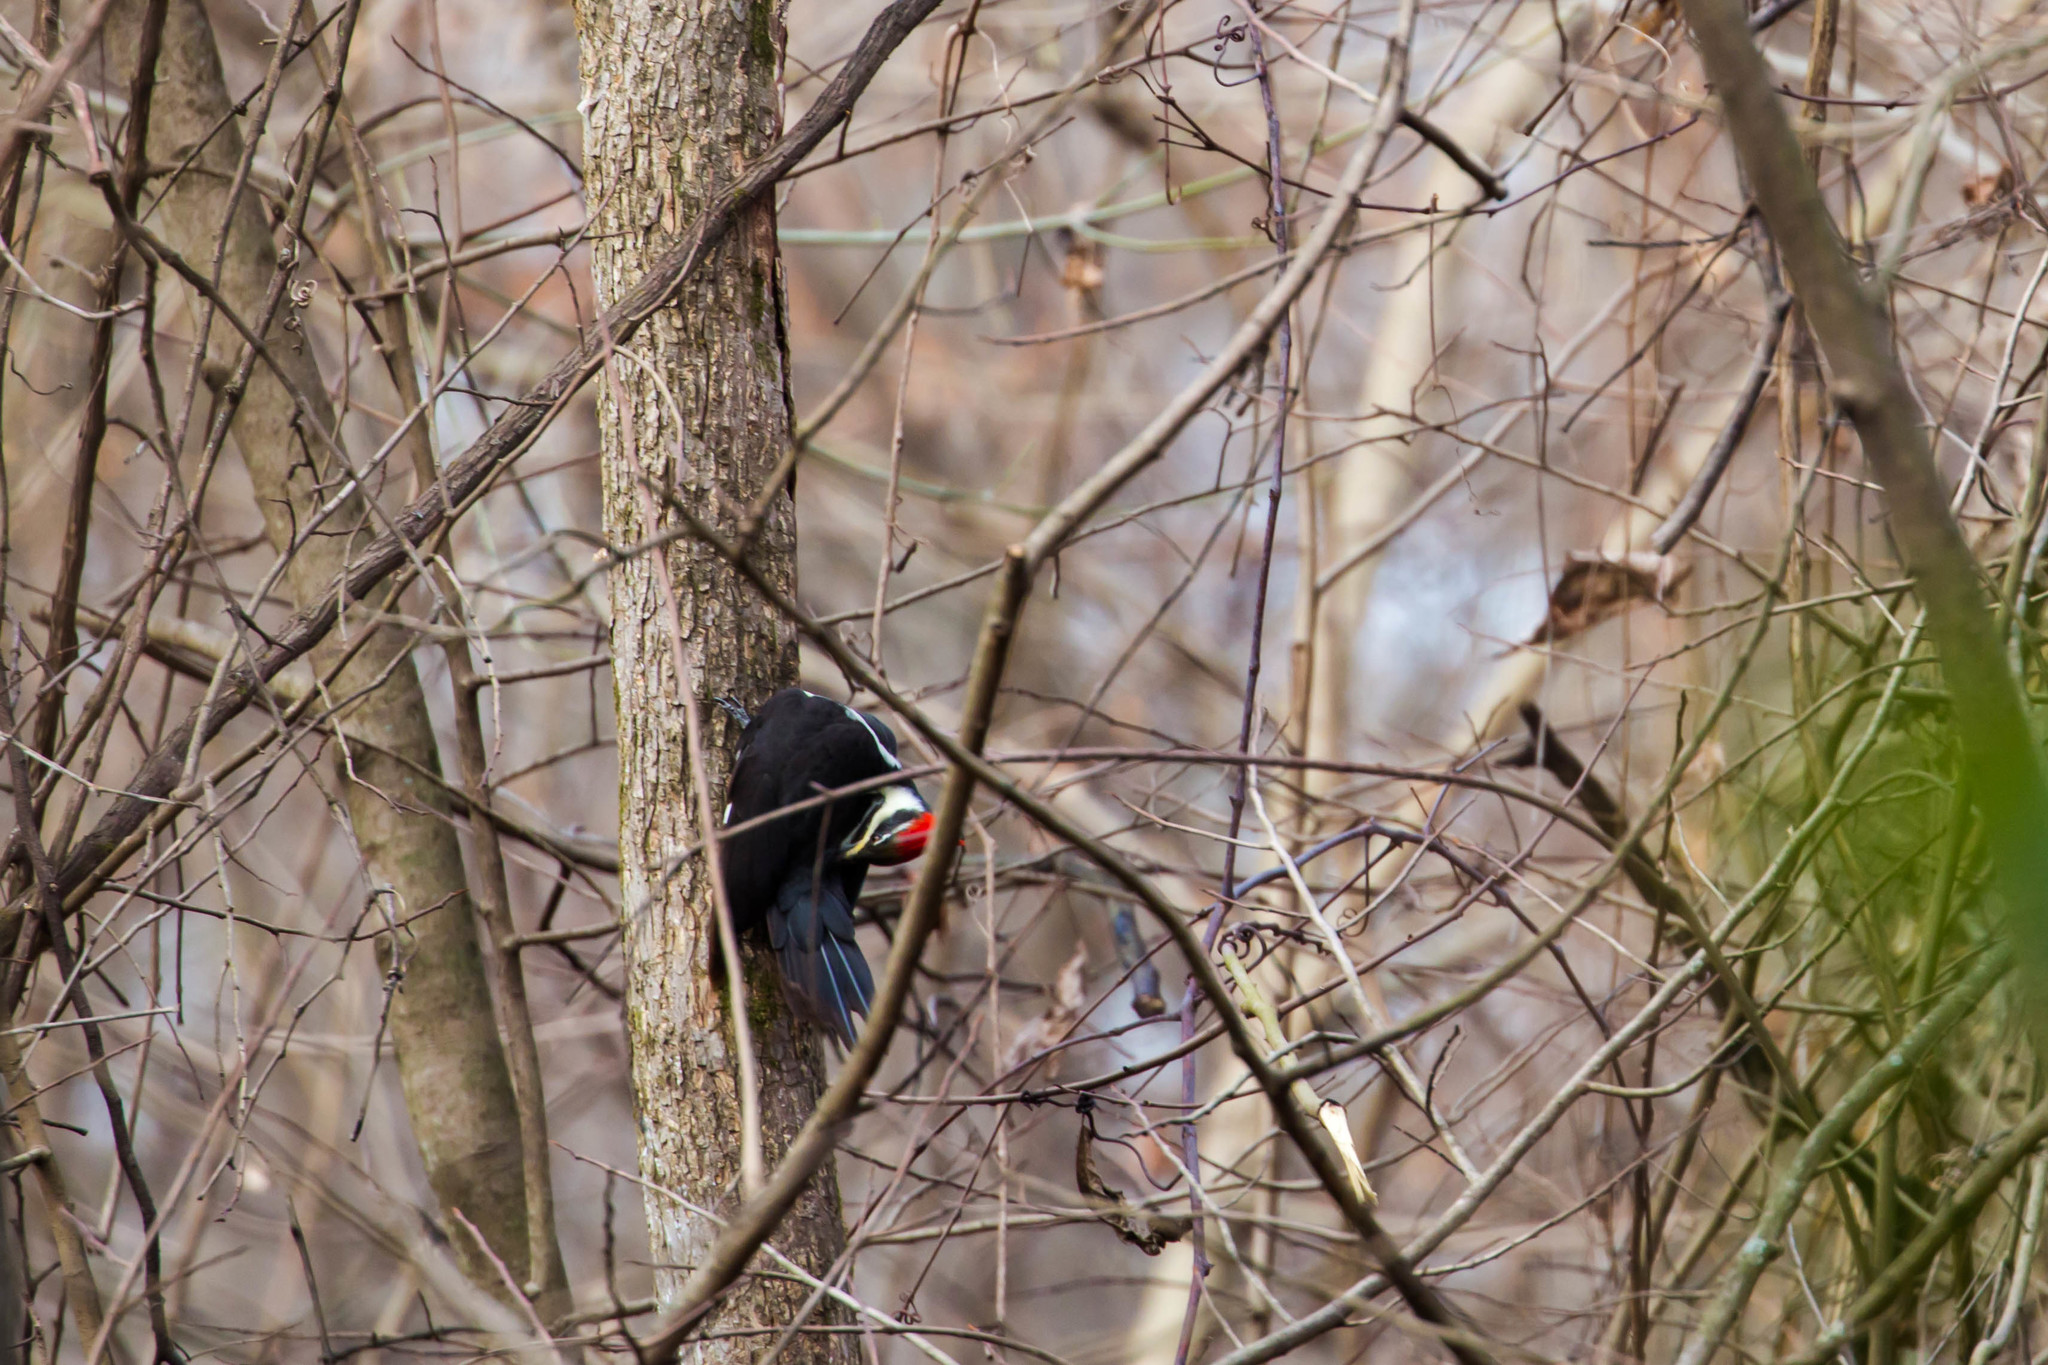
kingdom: Animalia
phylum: Chordata
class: Aves
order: Piciformes
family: Picidae
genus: Dryocopus
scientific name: Dryocopus pileatus
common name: Pileated woodpecker
